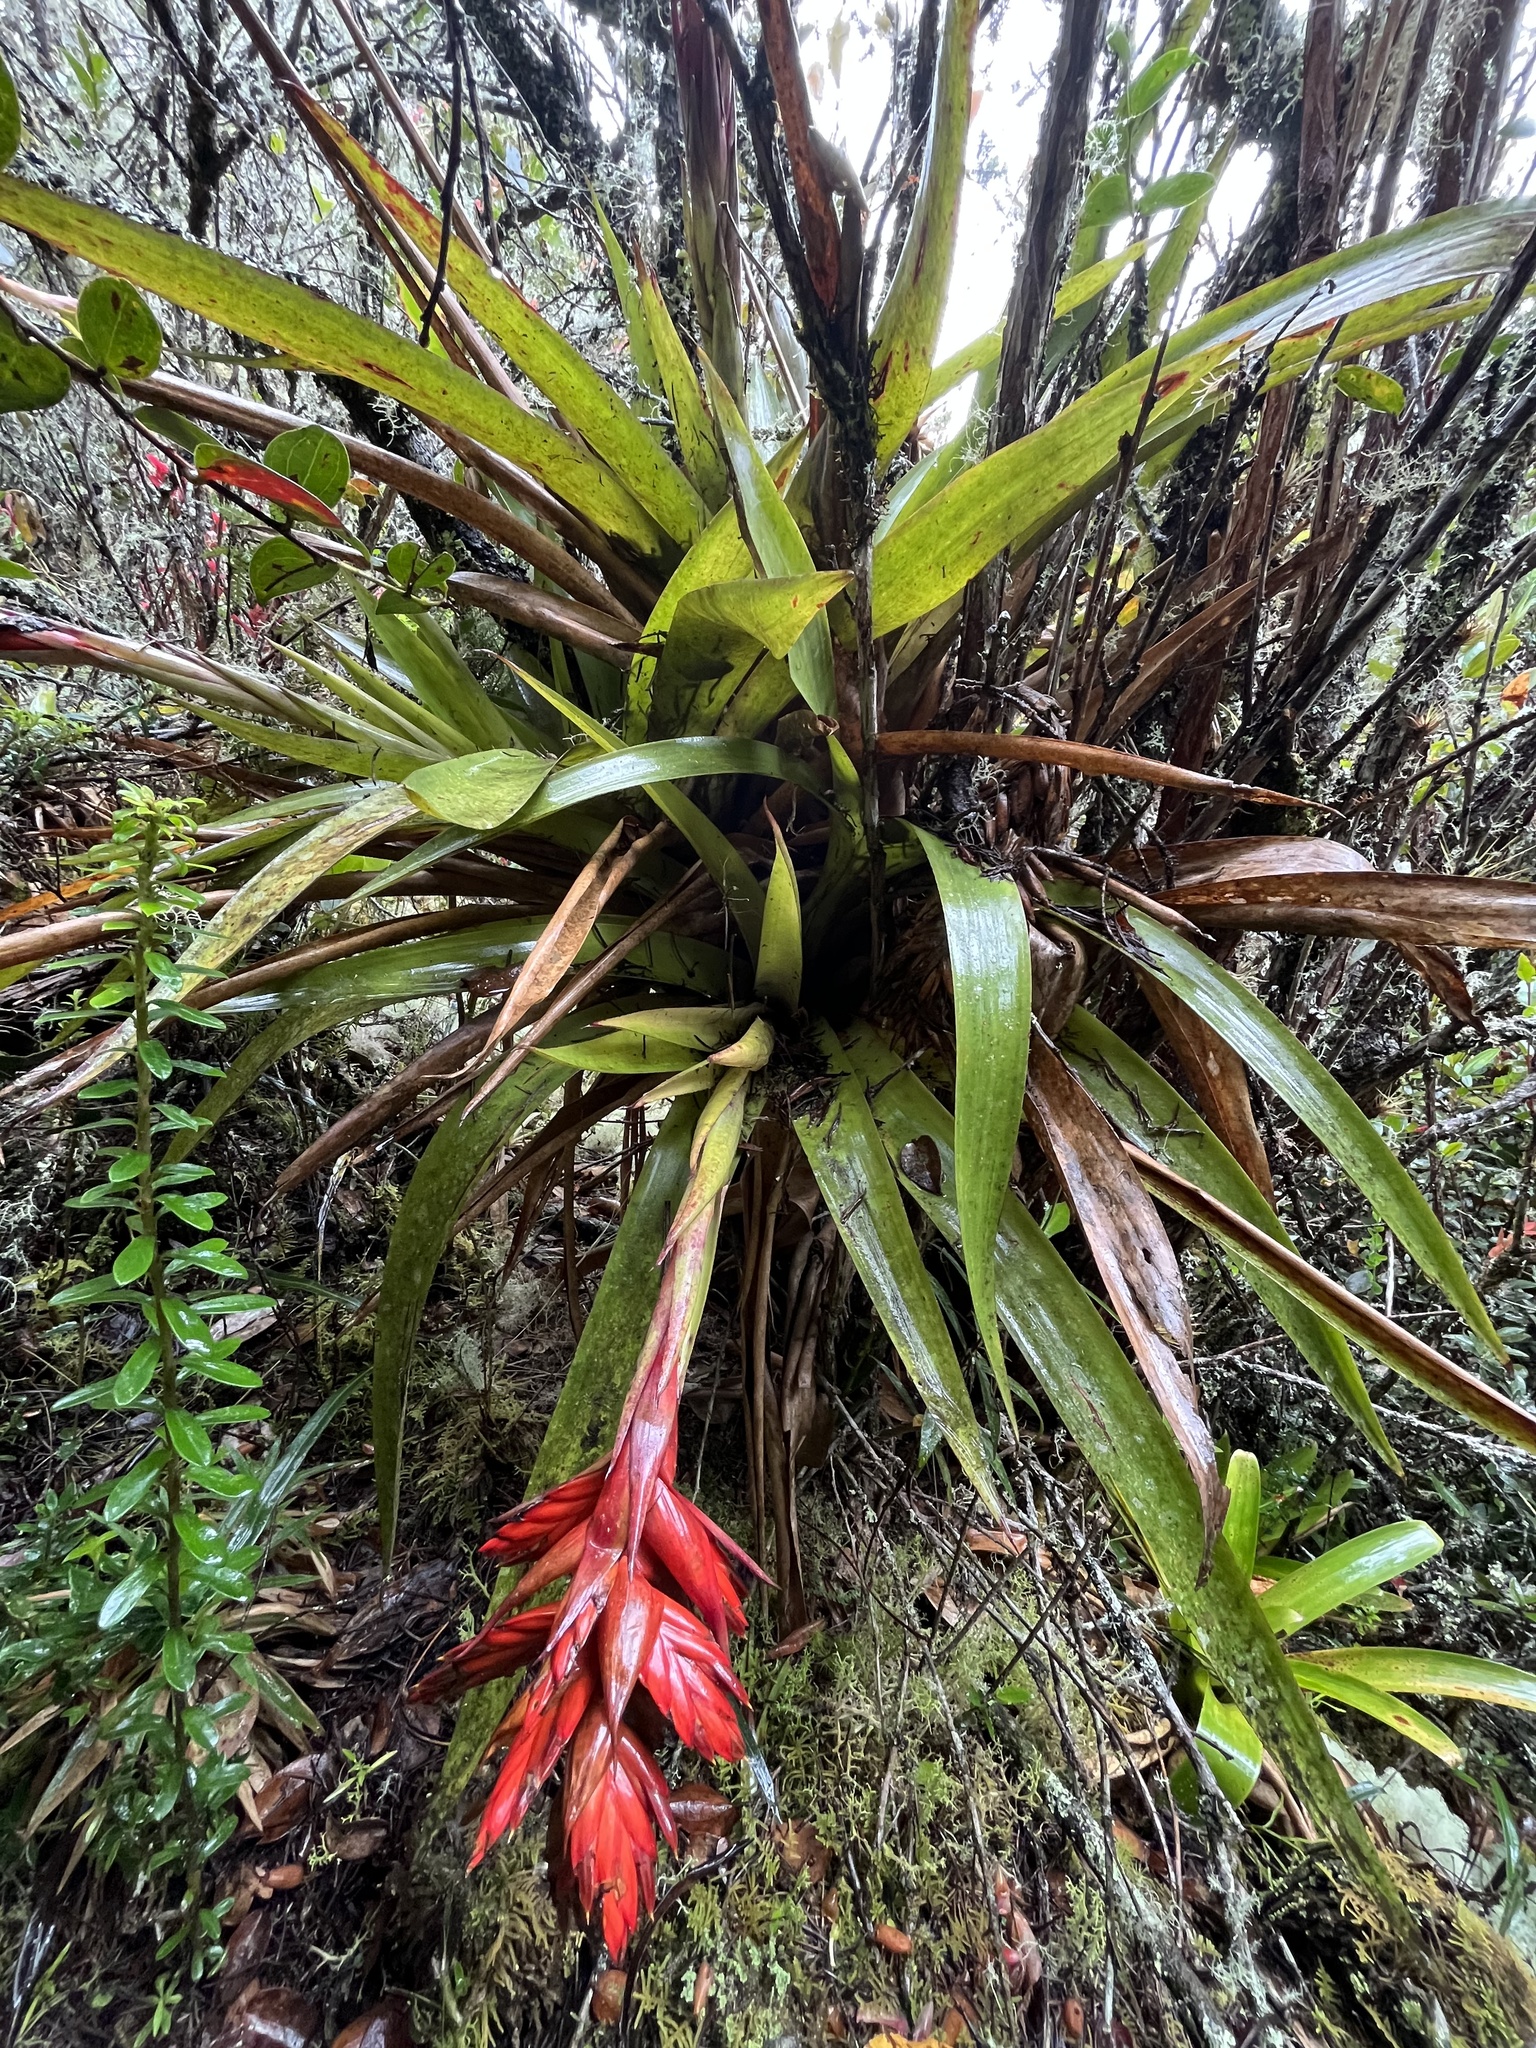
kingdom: Plantae
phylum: Tracheophyta
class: Liliopsida
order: Poales
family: Bromeliaceae
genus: Tillandsia
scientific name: Tillandsia restrepoana
